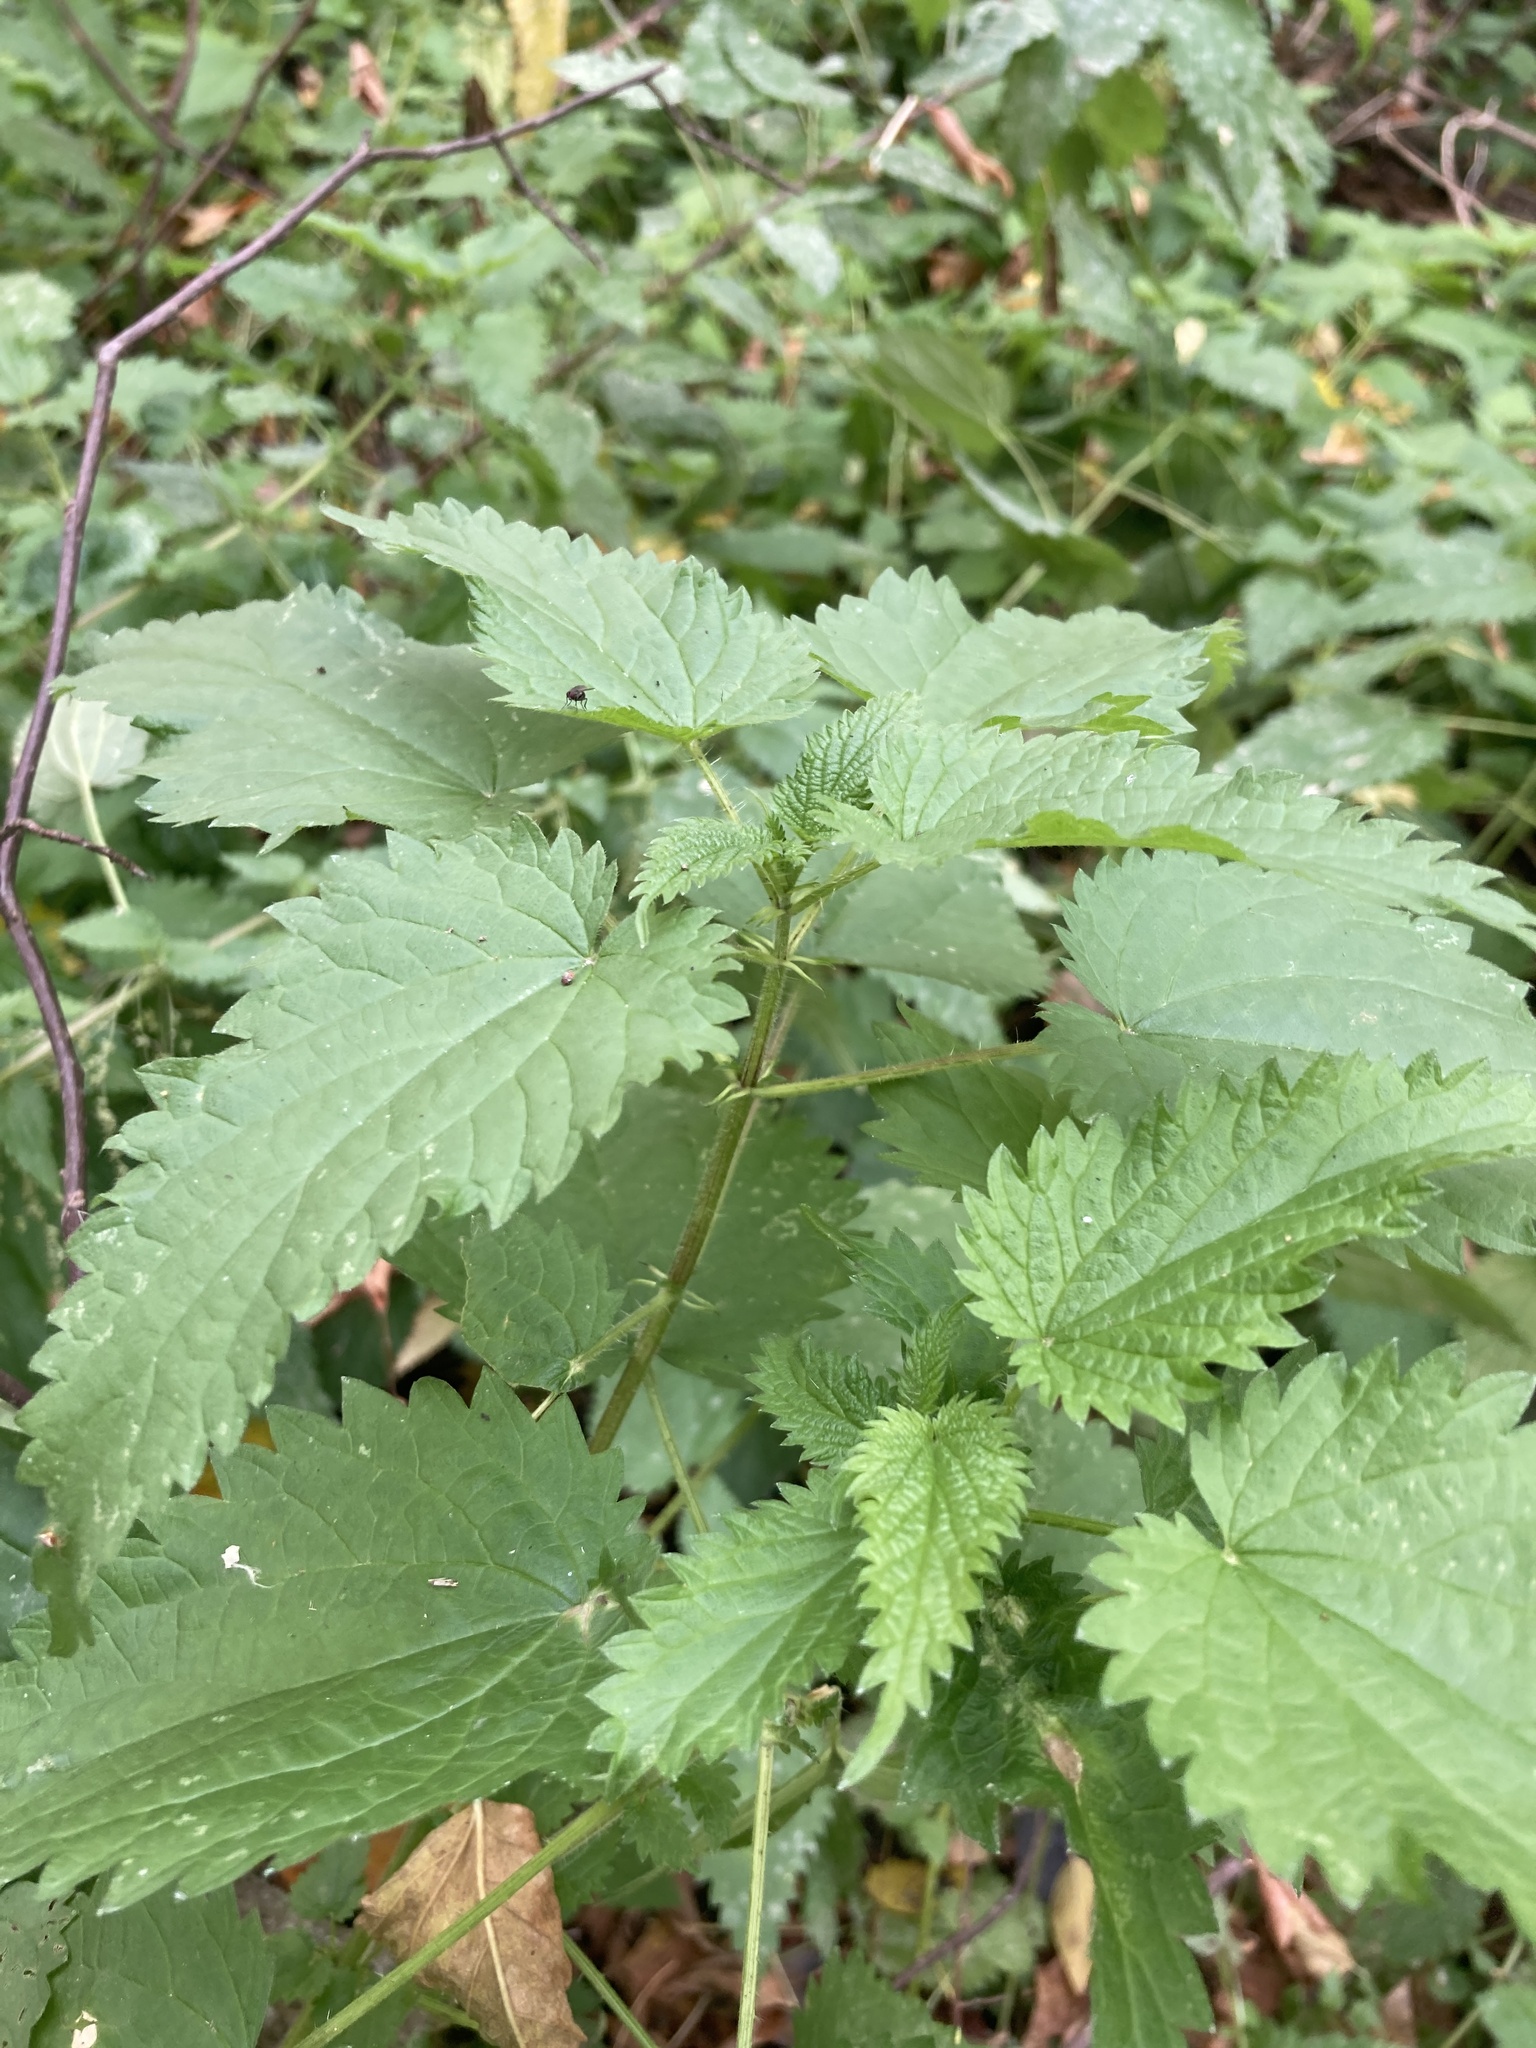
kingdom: Plantae
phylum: Tracheophyta
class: Magnoliopsida
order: Rosales
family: Urticaceae
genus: Urtica
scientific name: Urtica dioica
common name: Common nettle
